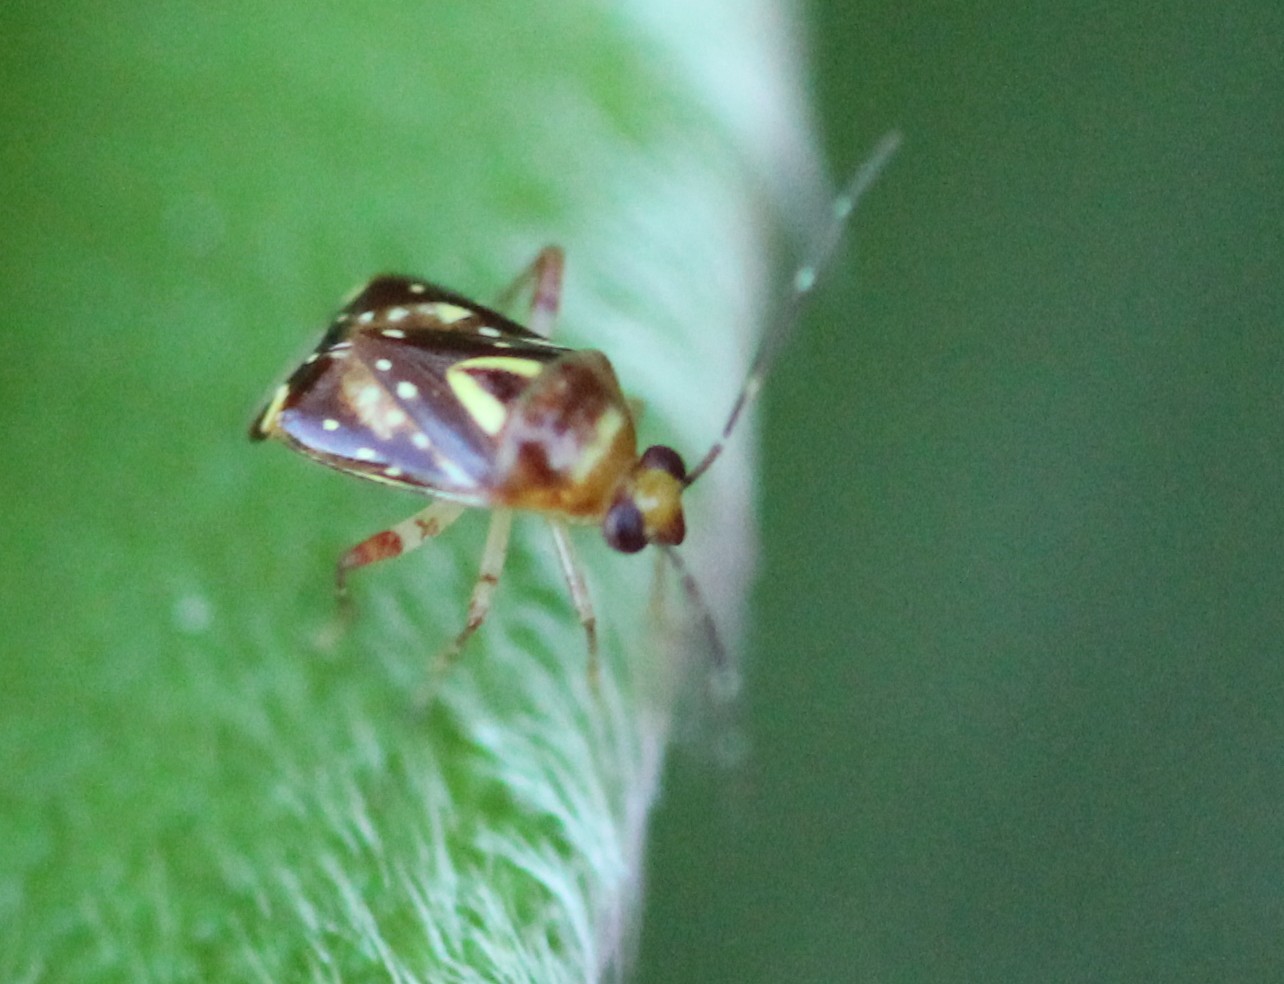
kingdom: Animalia
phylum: Arthropoda
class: Insecta
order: Hemiptera
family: Miridae
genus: Horciasoides
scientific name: Horciasoides nobilellus
